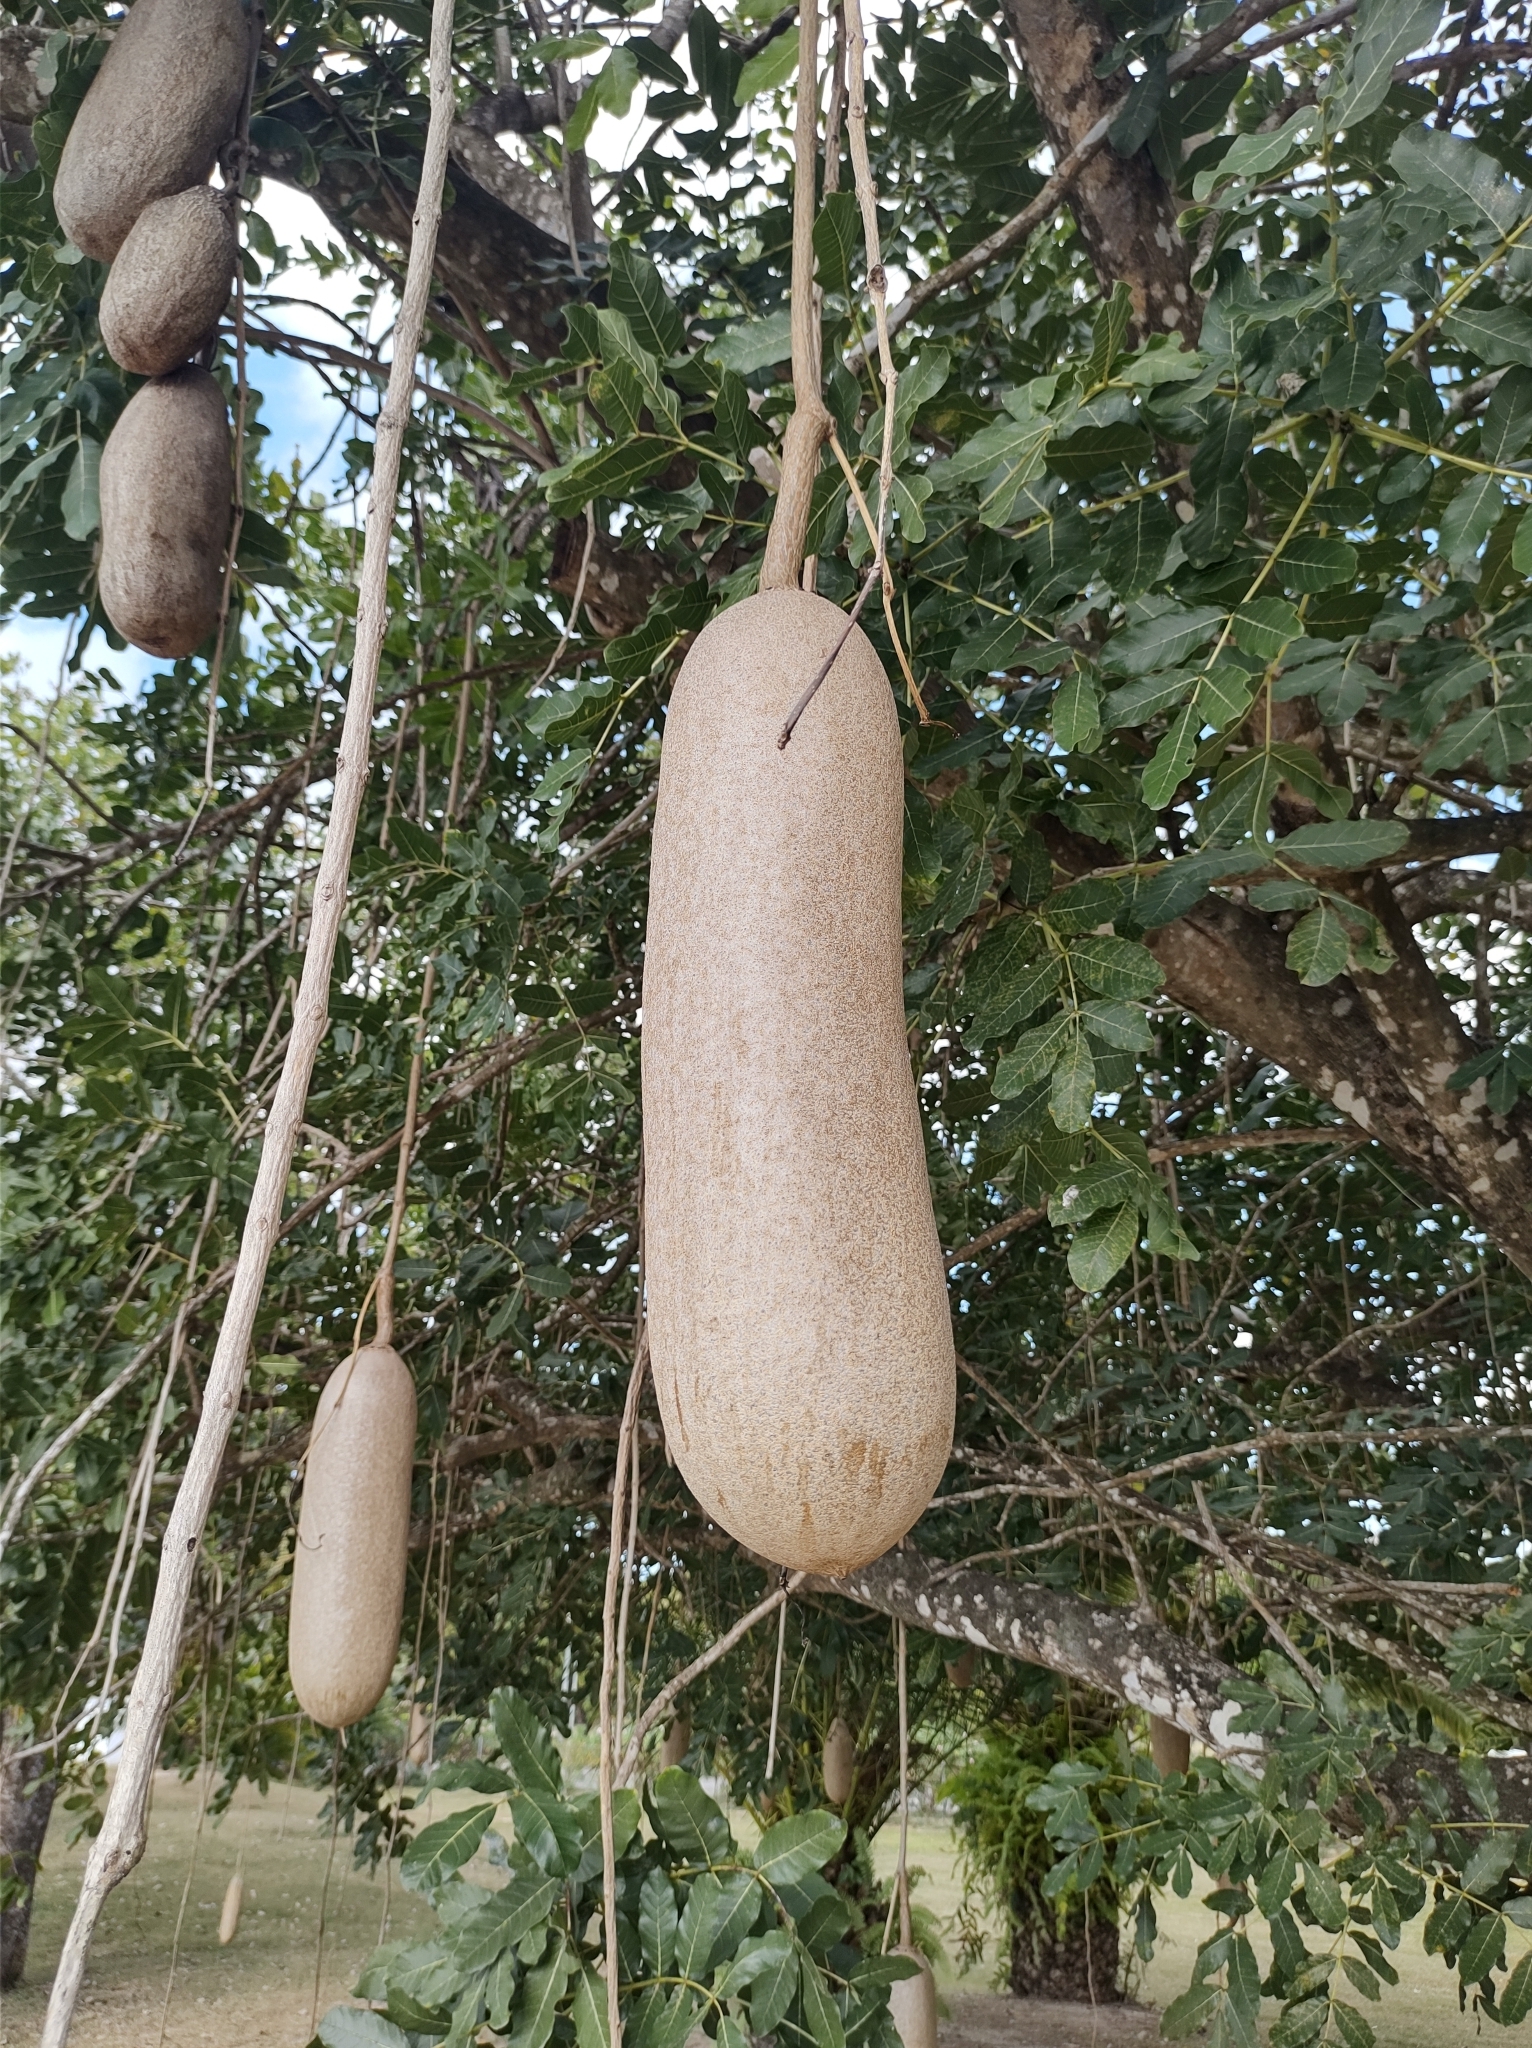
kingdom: Plantae
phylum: Tracheophyta
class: Magnoliopsida
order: Lamiales
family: Bignoniaceae
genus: Kigelia
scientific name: Kigelia africana
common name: Sausage tree
